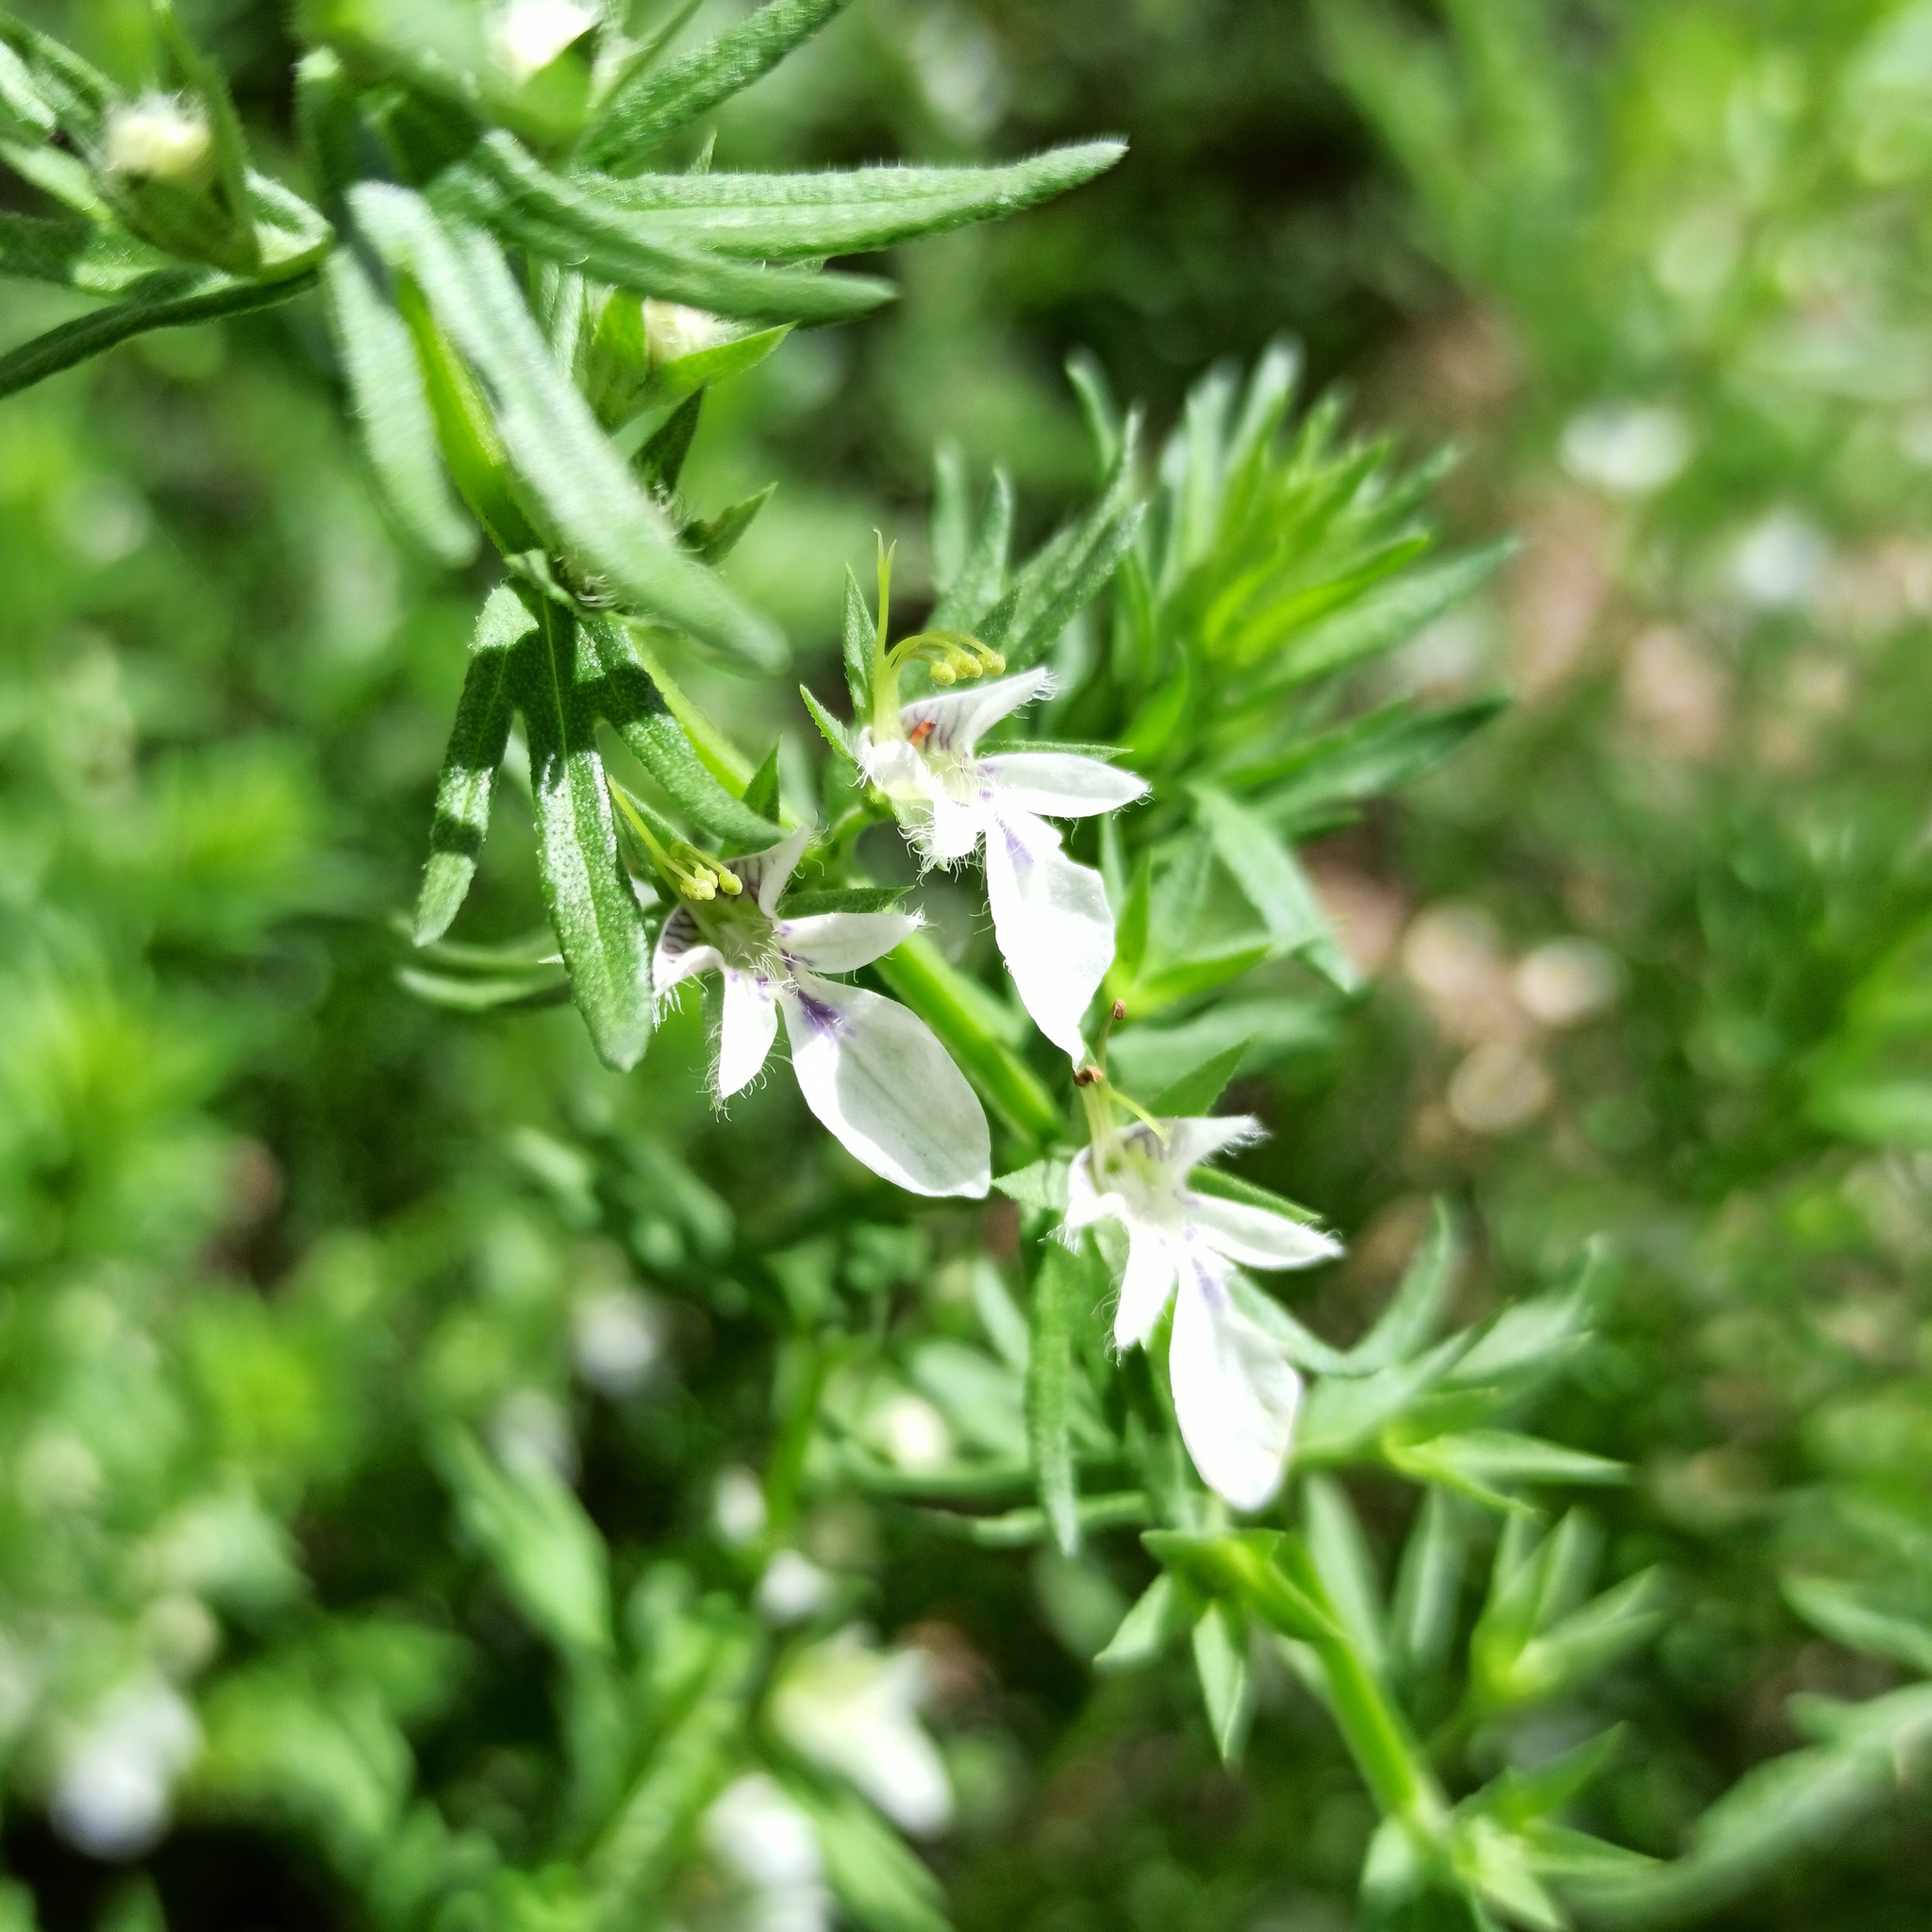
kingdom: Plantae
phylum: Tracheophyta
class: Magnoliopsida
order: Lamiales
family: Lamiaceae
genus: Teucrium
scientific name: Teucrium cubense
